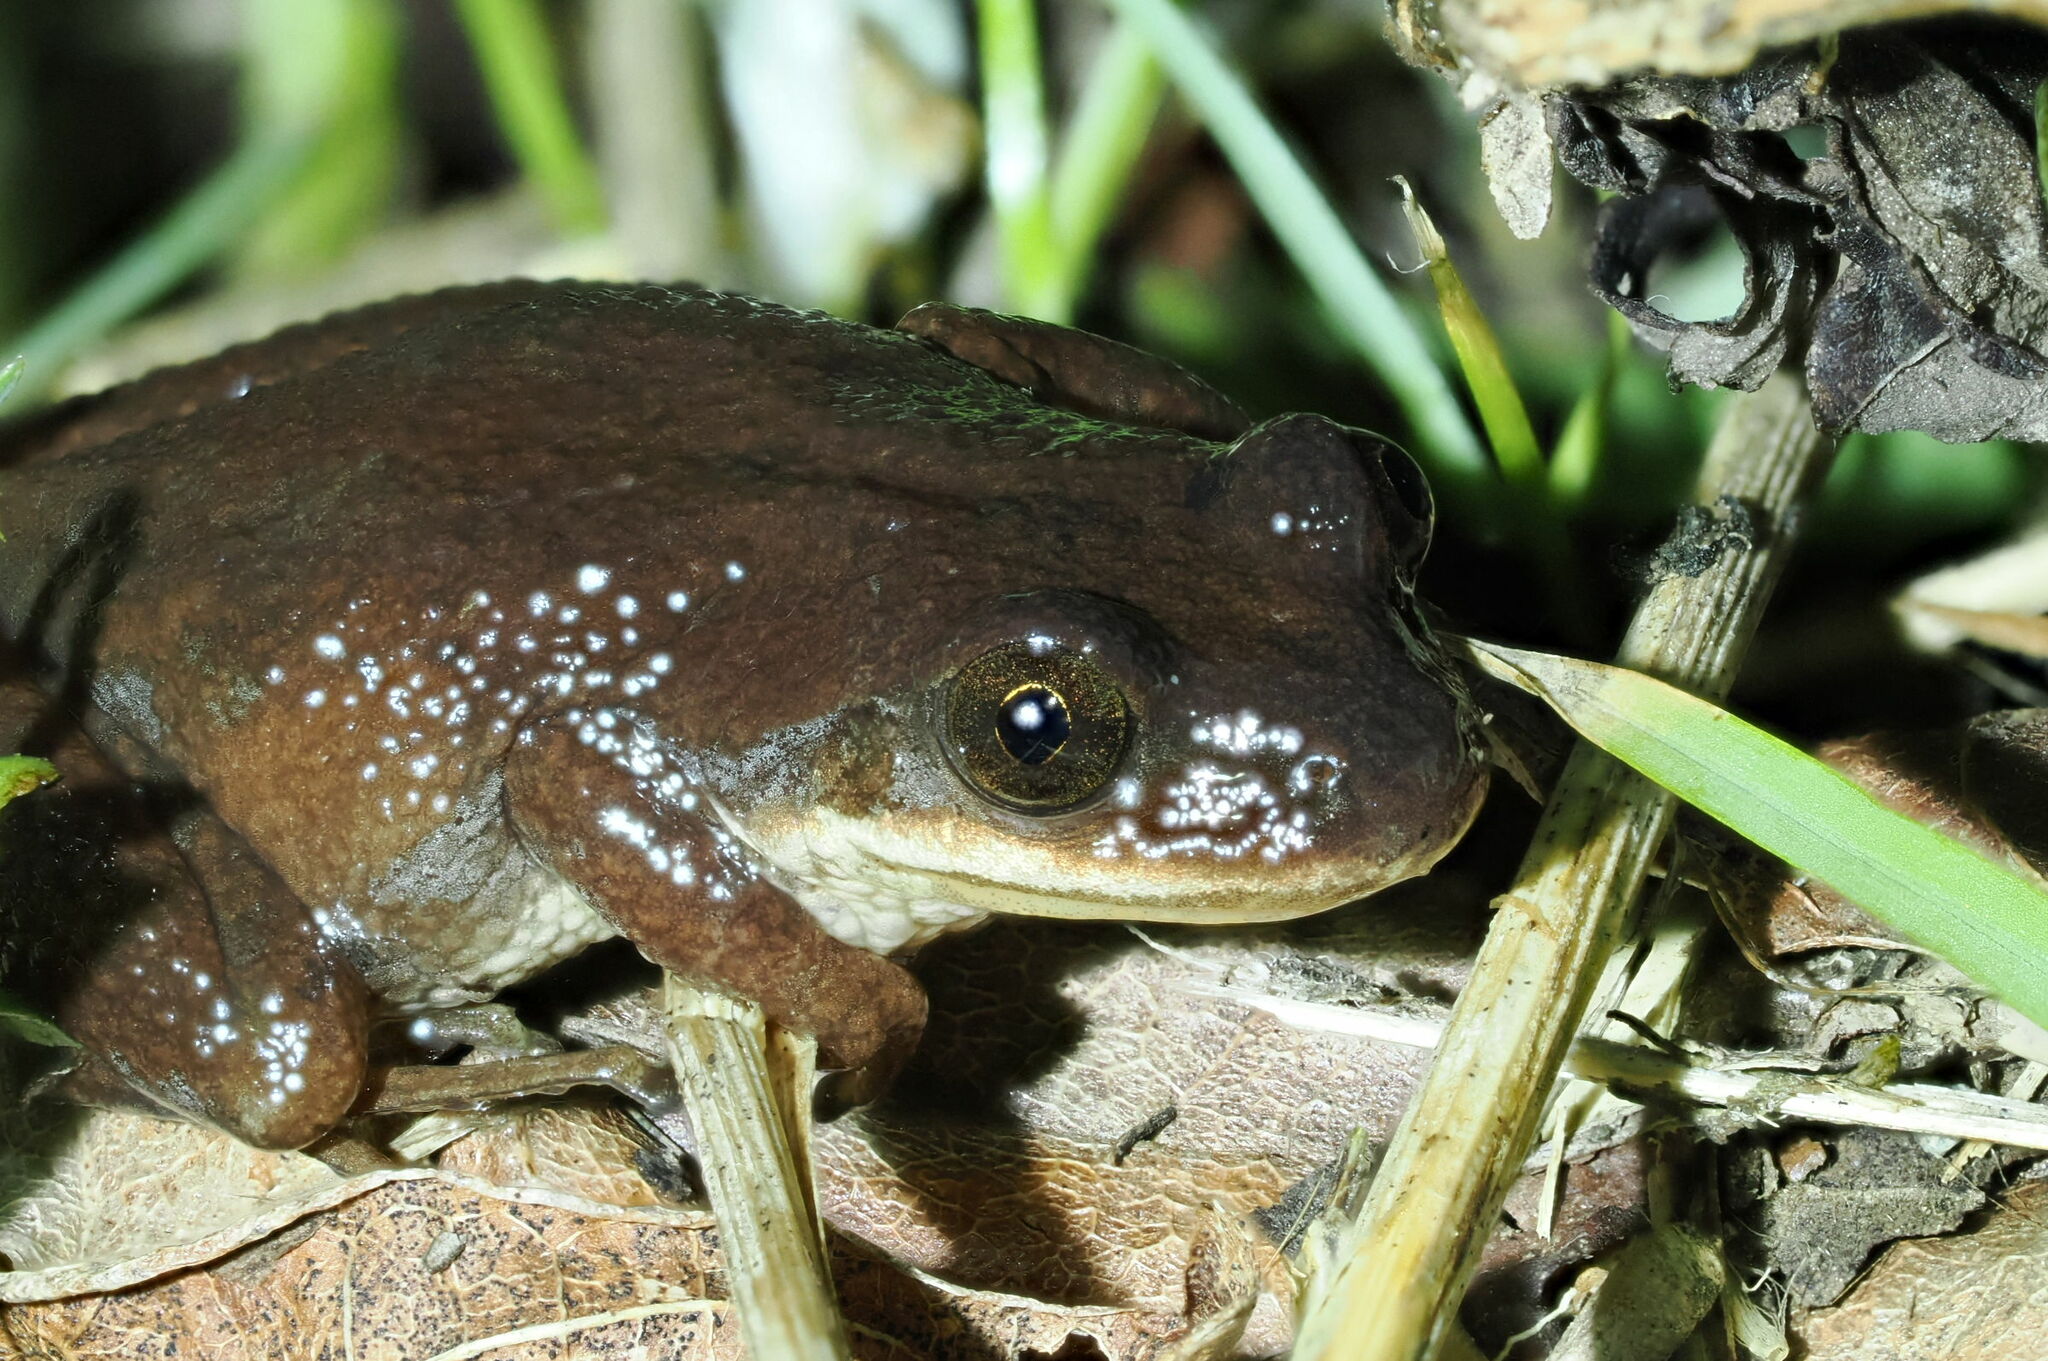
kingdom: Animalia
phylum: Chordata
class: Amphibia
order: Anura
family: Hylidae
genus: Pseudacris
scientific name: Pseudacris feriarum
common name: Upland chorus frog
